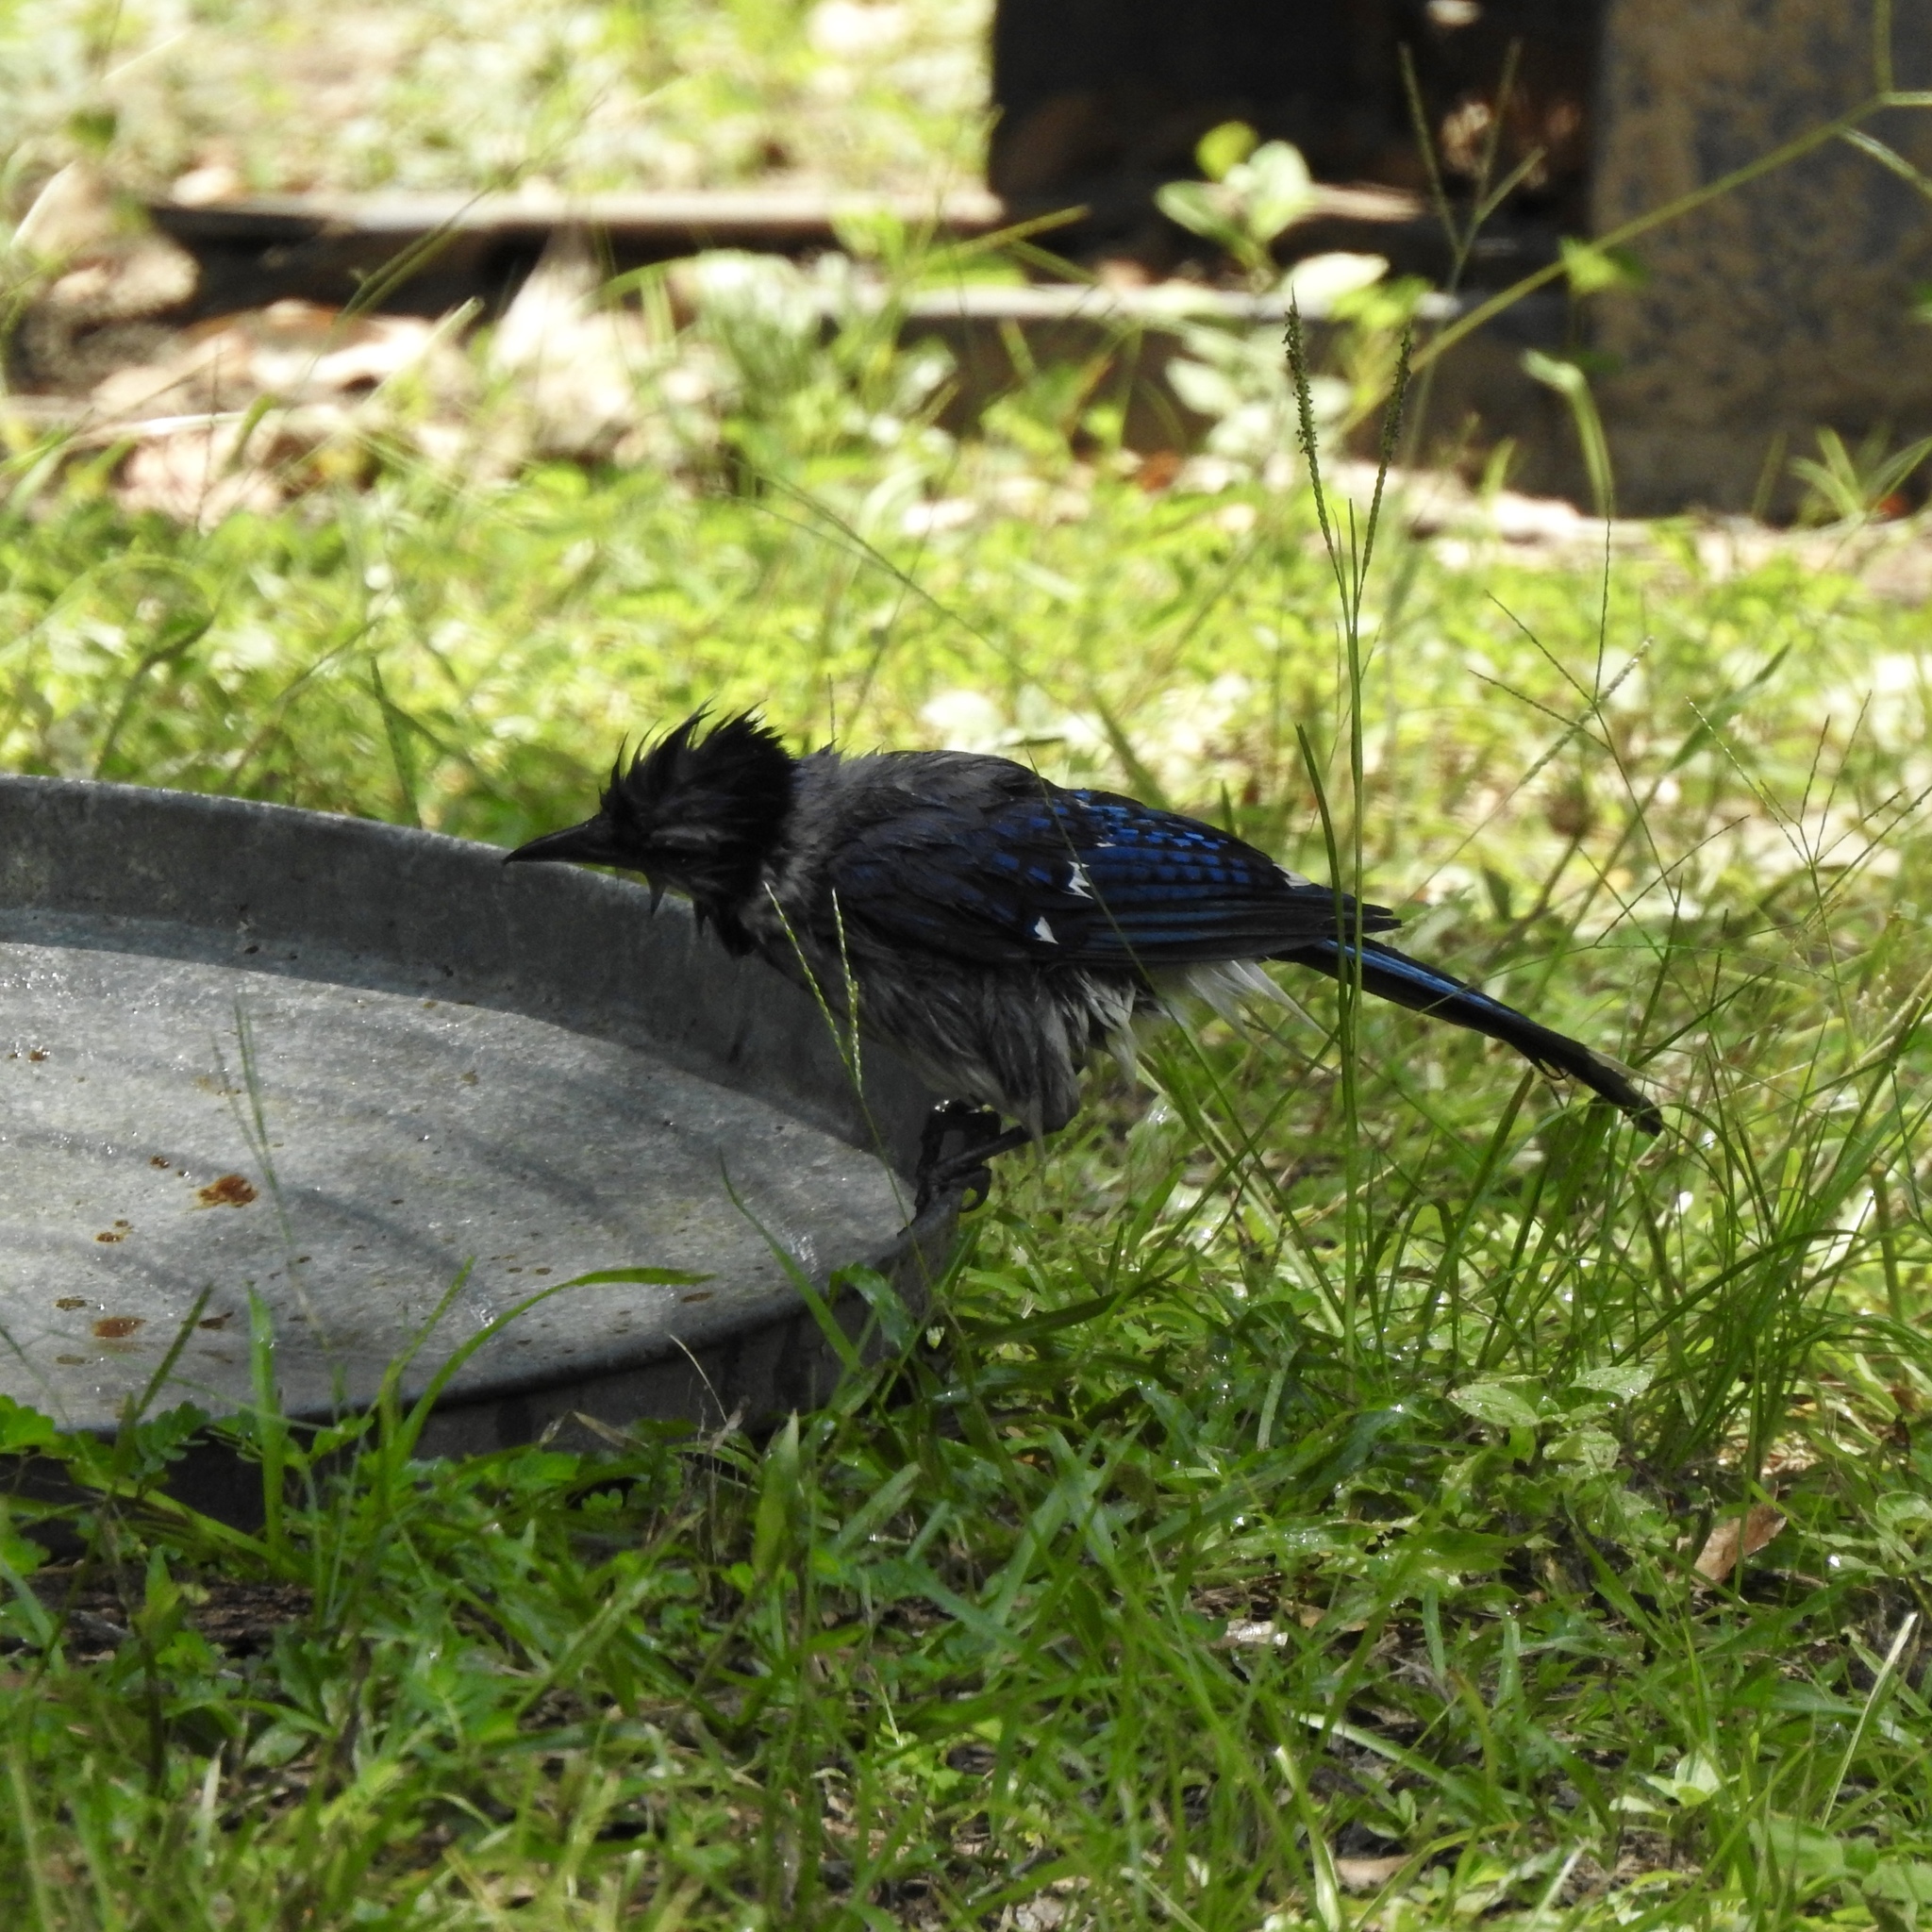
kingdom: Animalia
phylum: Chordata
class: Aves
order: Passeriformes
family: Corvidae
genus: Cyanocitta
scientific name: Cyanocitta cristata
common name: Blue jay
